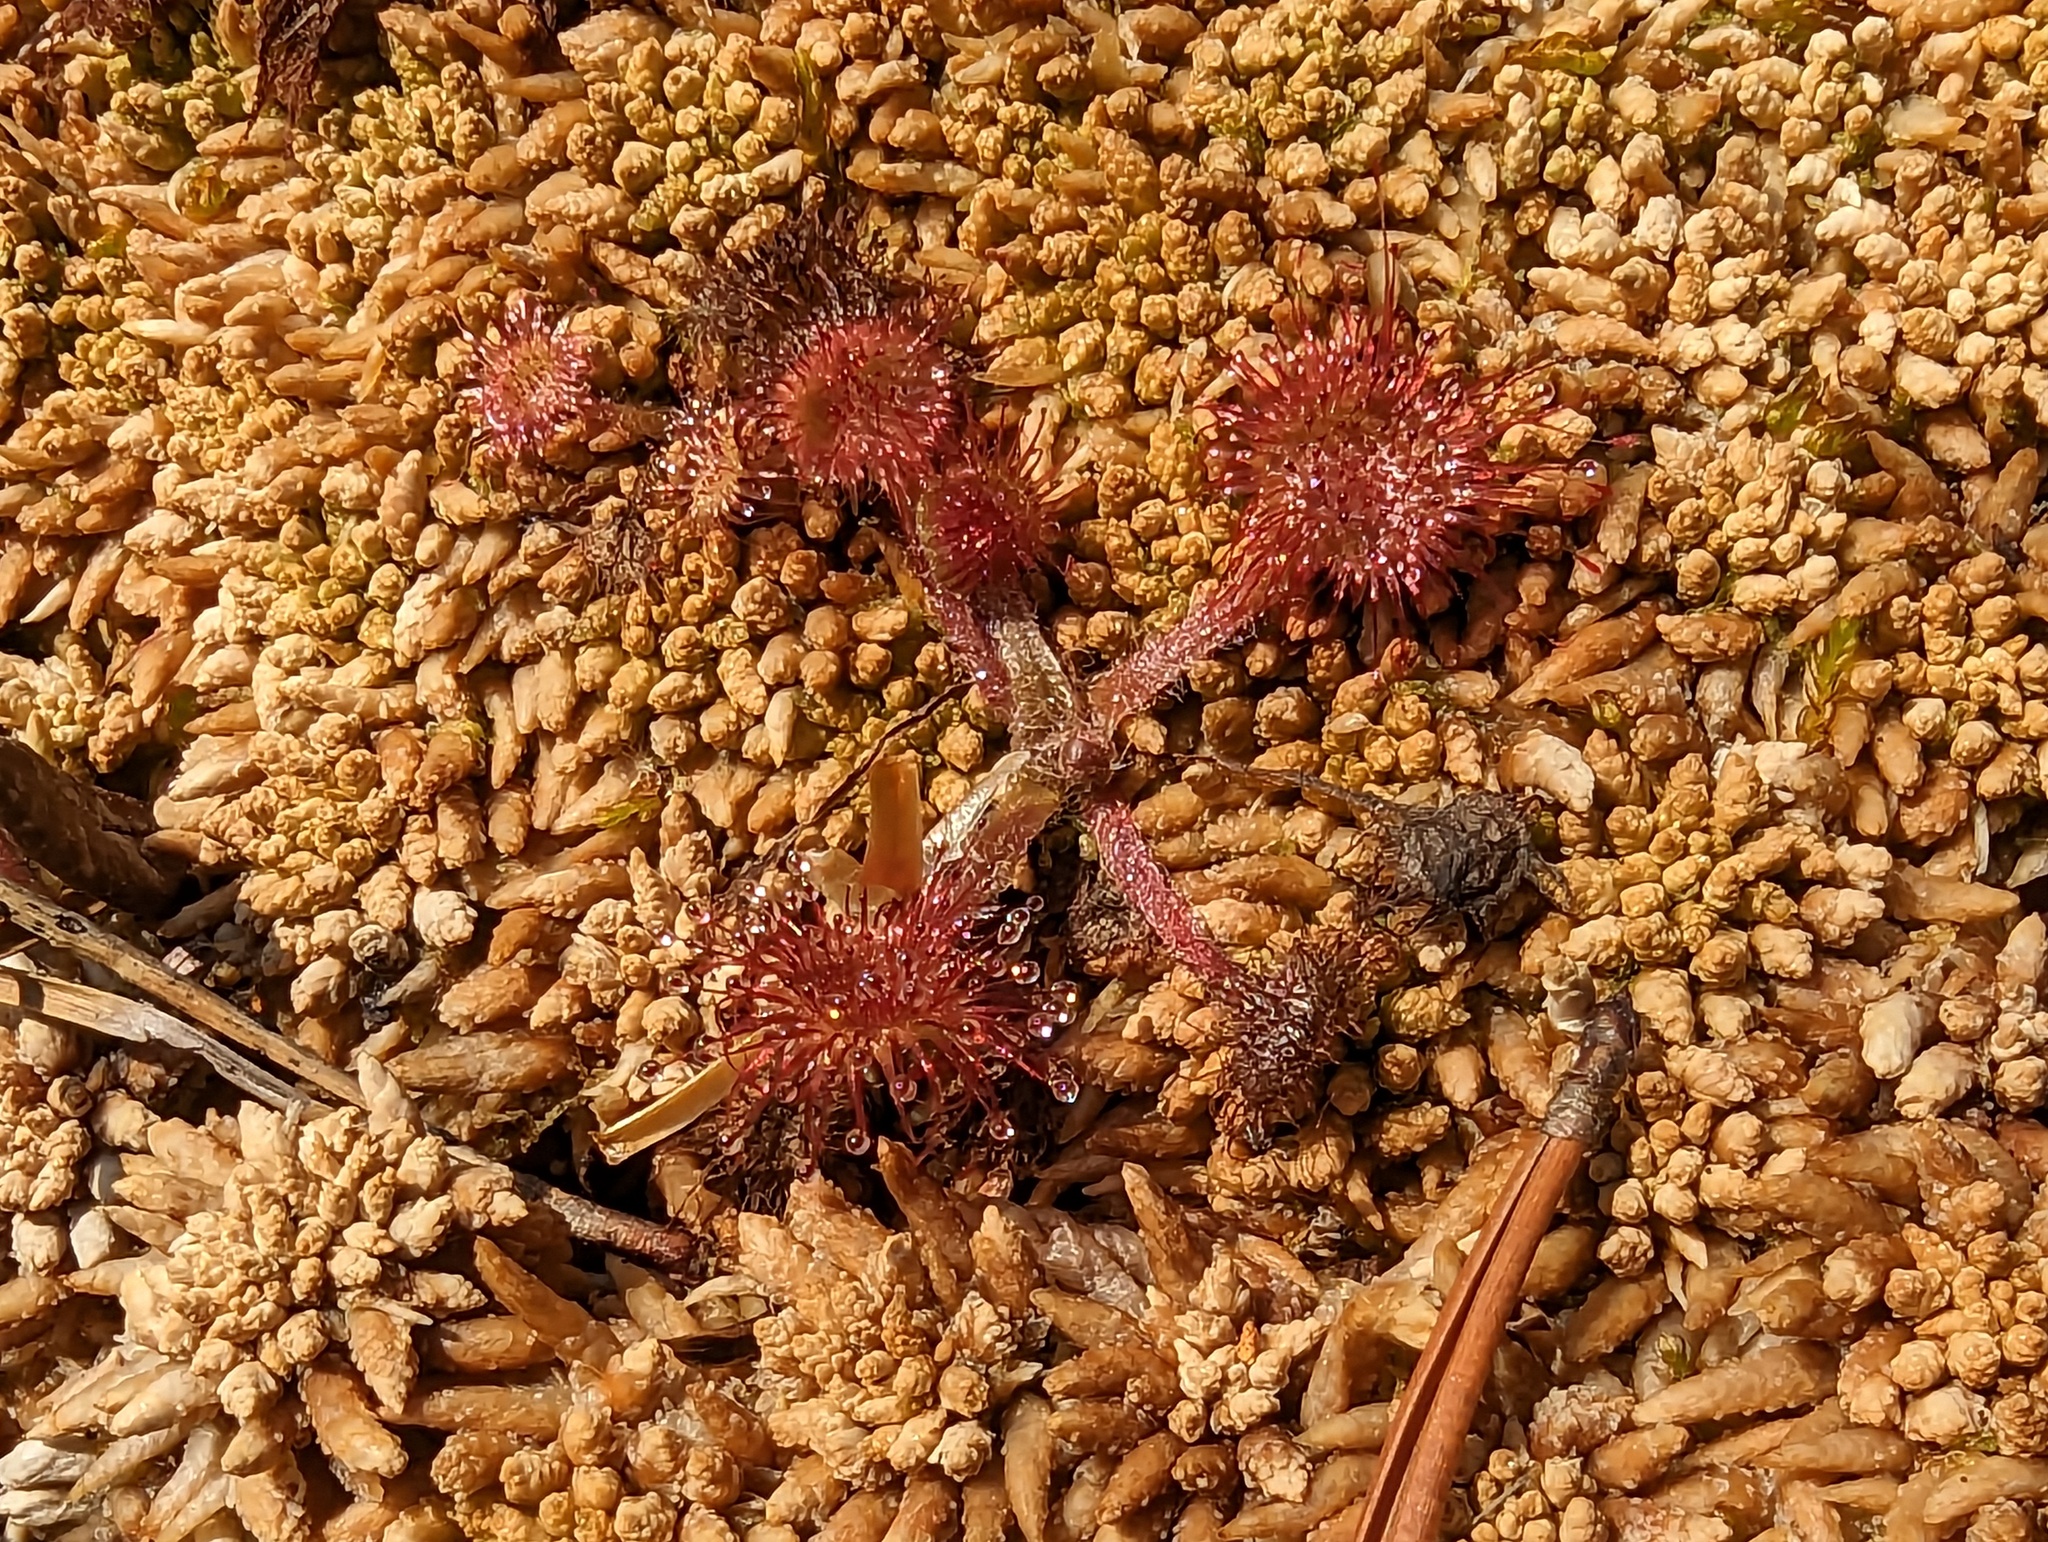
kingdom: Plantae
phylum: Tracheophyta
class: Magnoliopsida
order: Caryophyllales
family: Droseraceae
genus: Drosera
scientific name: Drosera rotundifolia
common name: Round-leaved sundew
